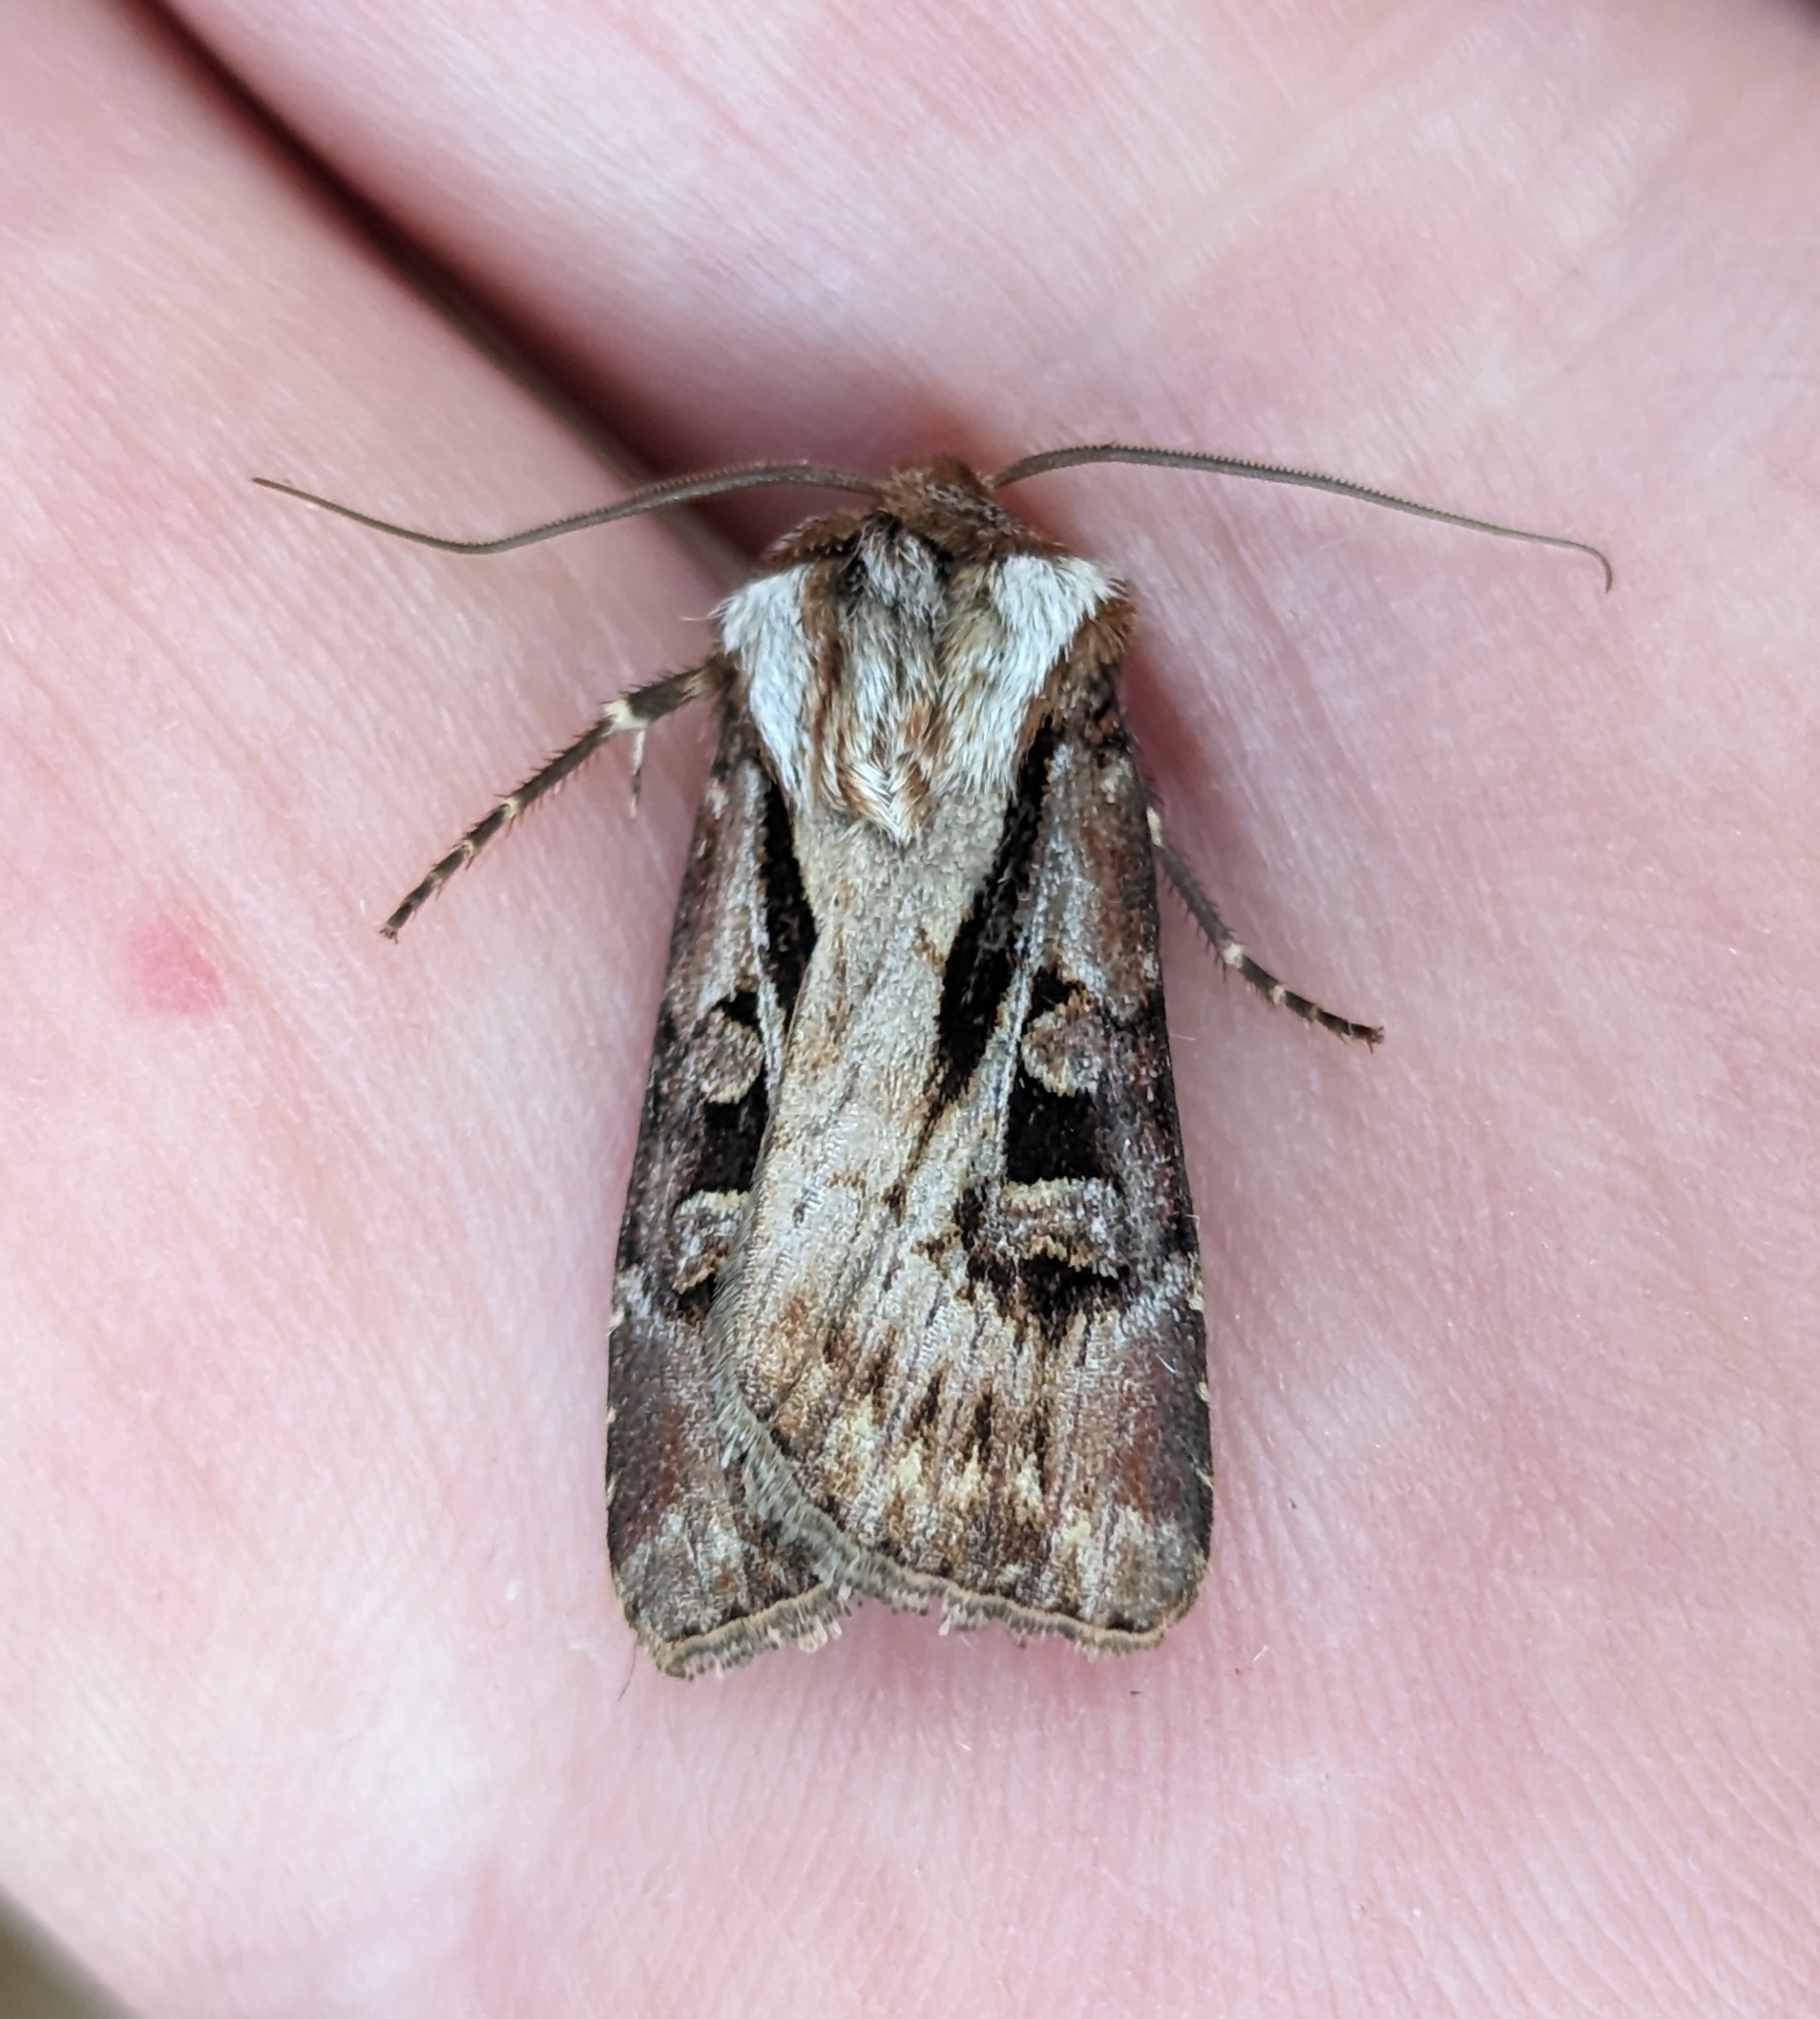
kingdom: Animalia
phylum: Arthropoda
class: Insecta
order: Lepidoptera
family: Noctuidae
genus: Agrotis
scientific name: Agrotis vancouverensis
